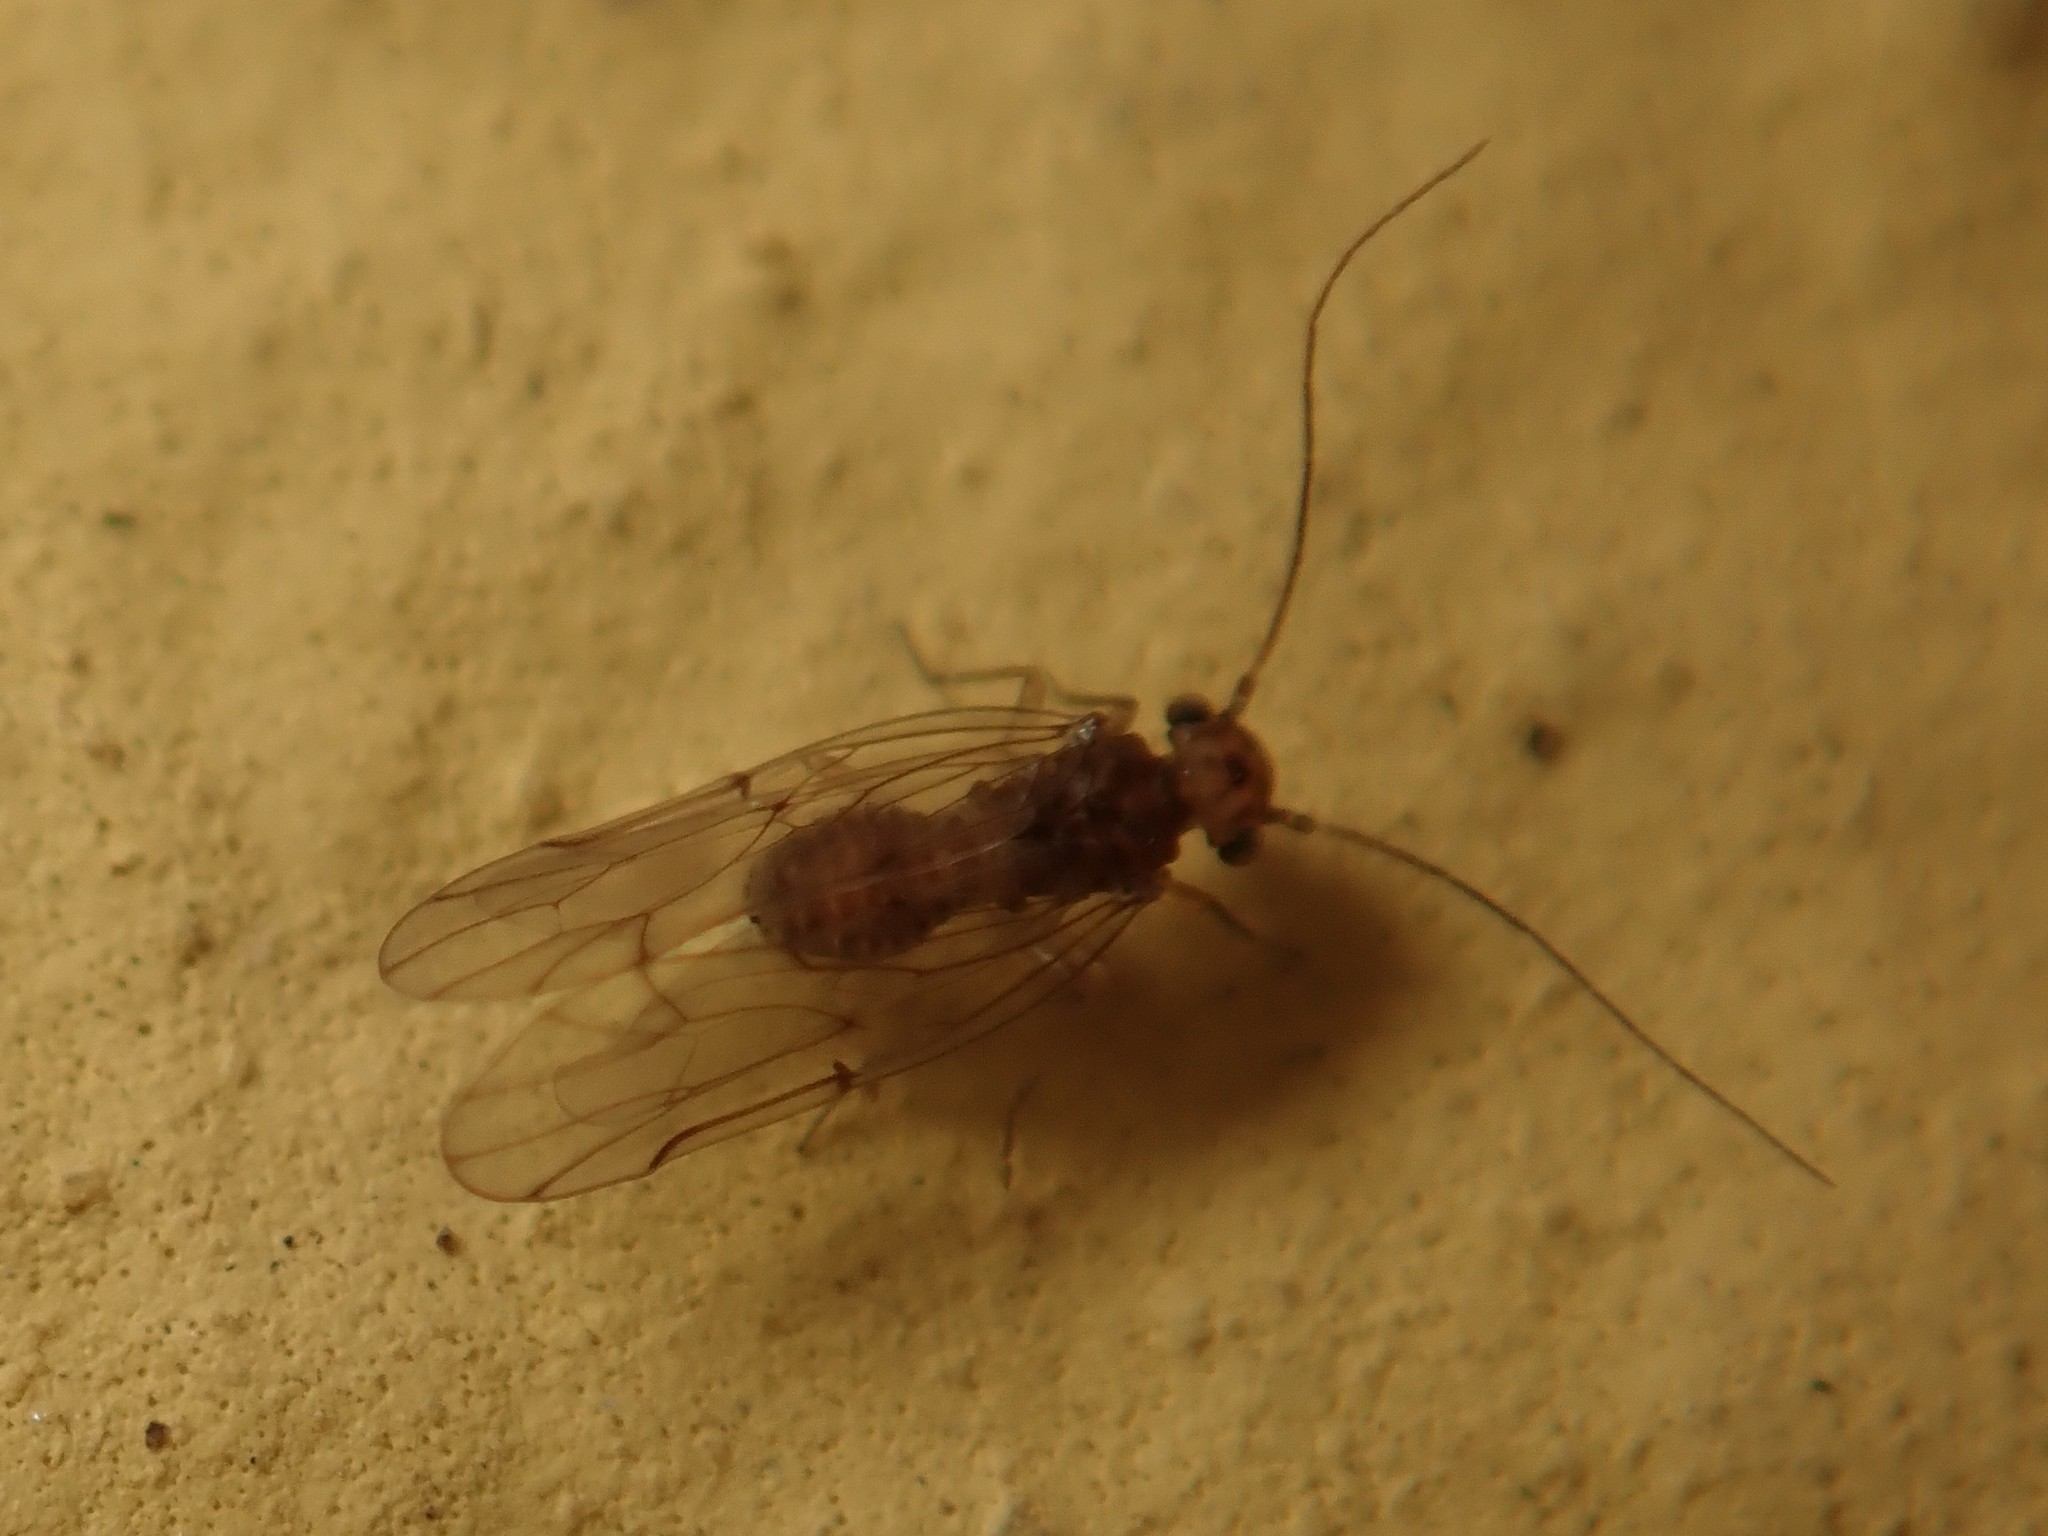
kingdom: Animalia
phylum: Arthropoda
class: Insecta
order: Psocodea
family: Ectopsocidae
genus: Ectopsocus
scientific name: Ectopsocus briggsi
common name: Ectopsocid
